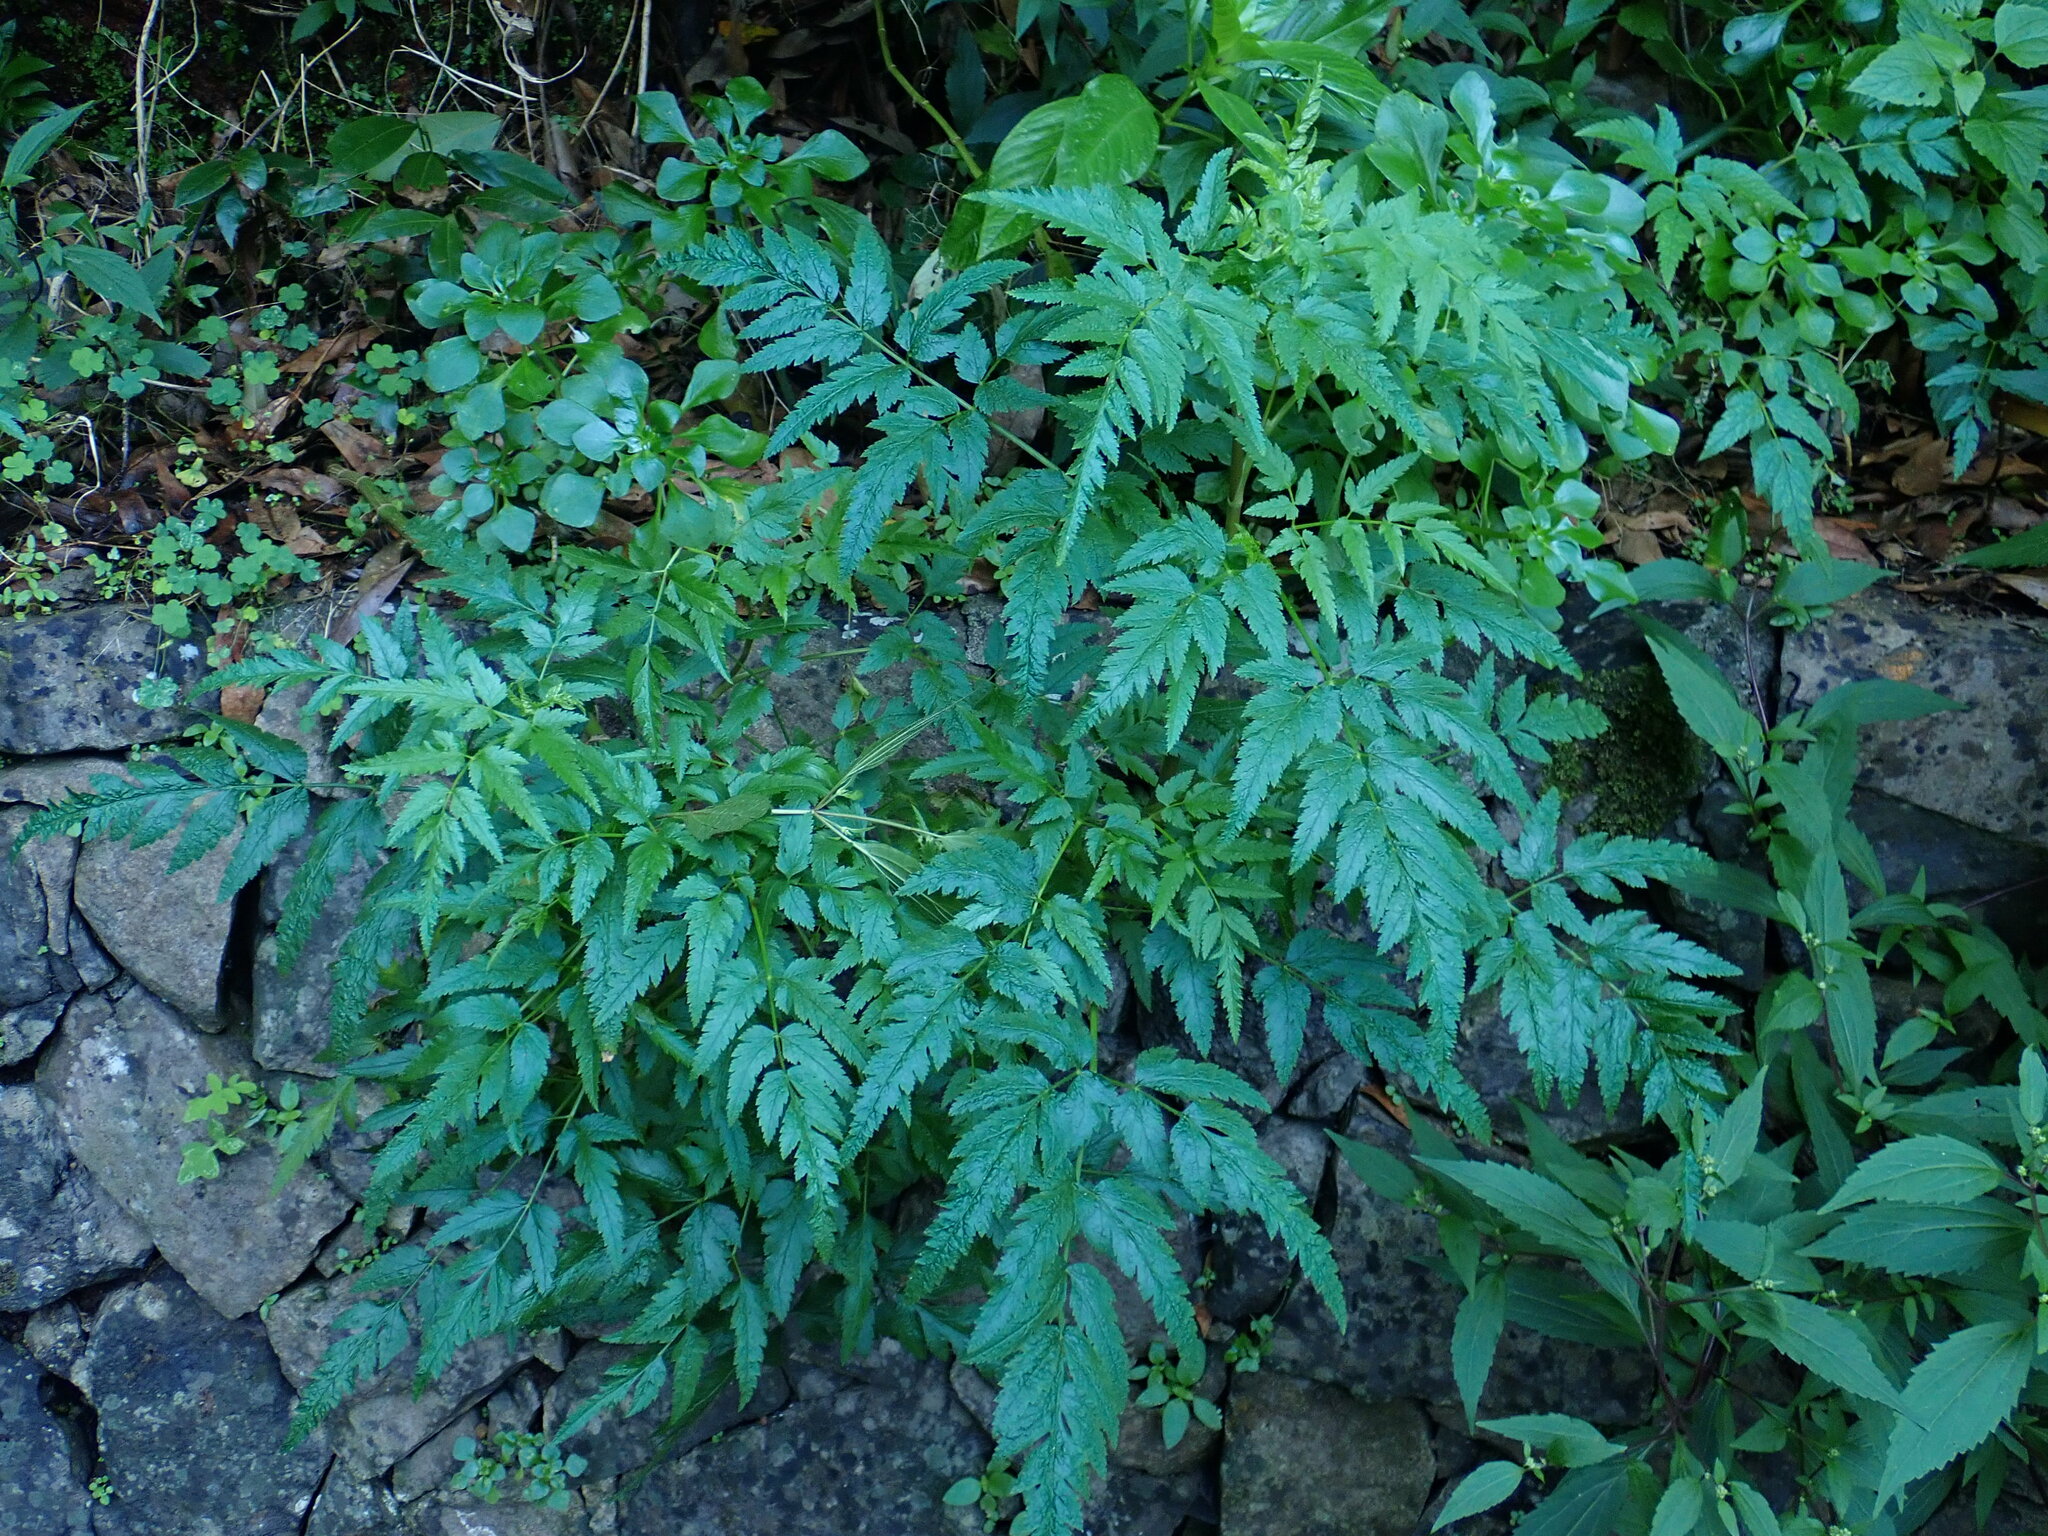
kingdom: Plantae
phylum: Tracheophyta
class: Magnoliopsida
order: Apiales
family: Apiaceae
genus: Daucus
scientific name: Daucus elegans
